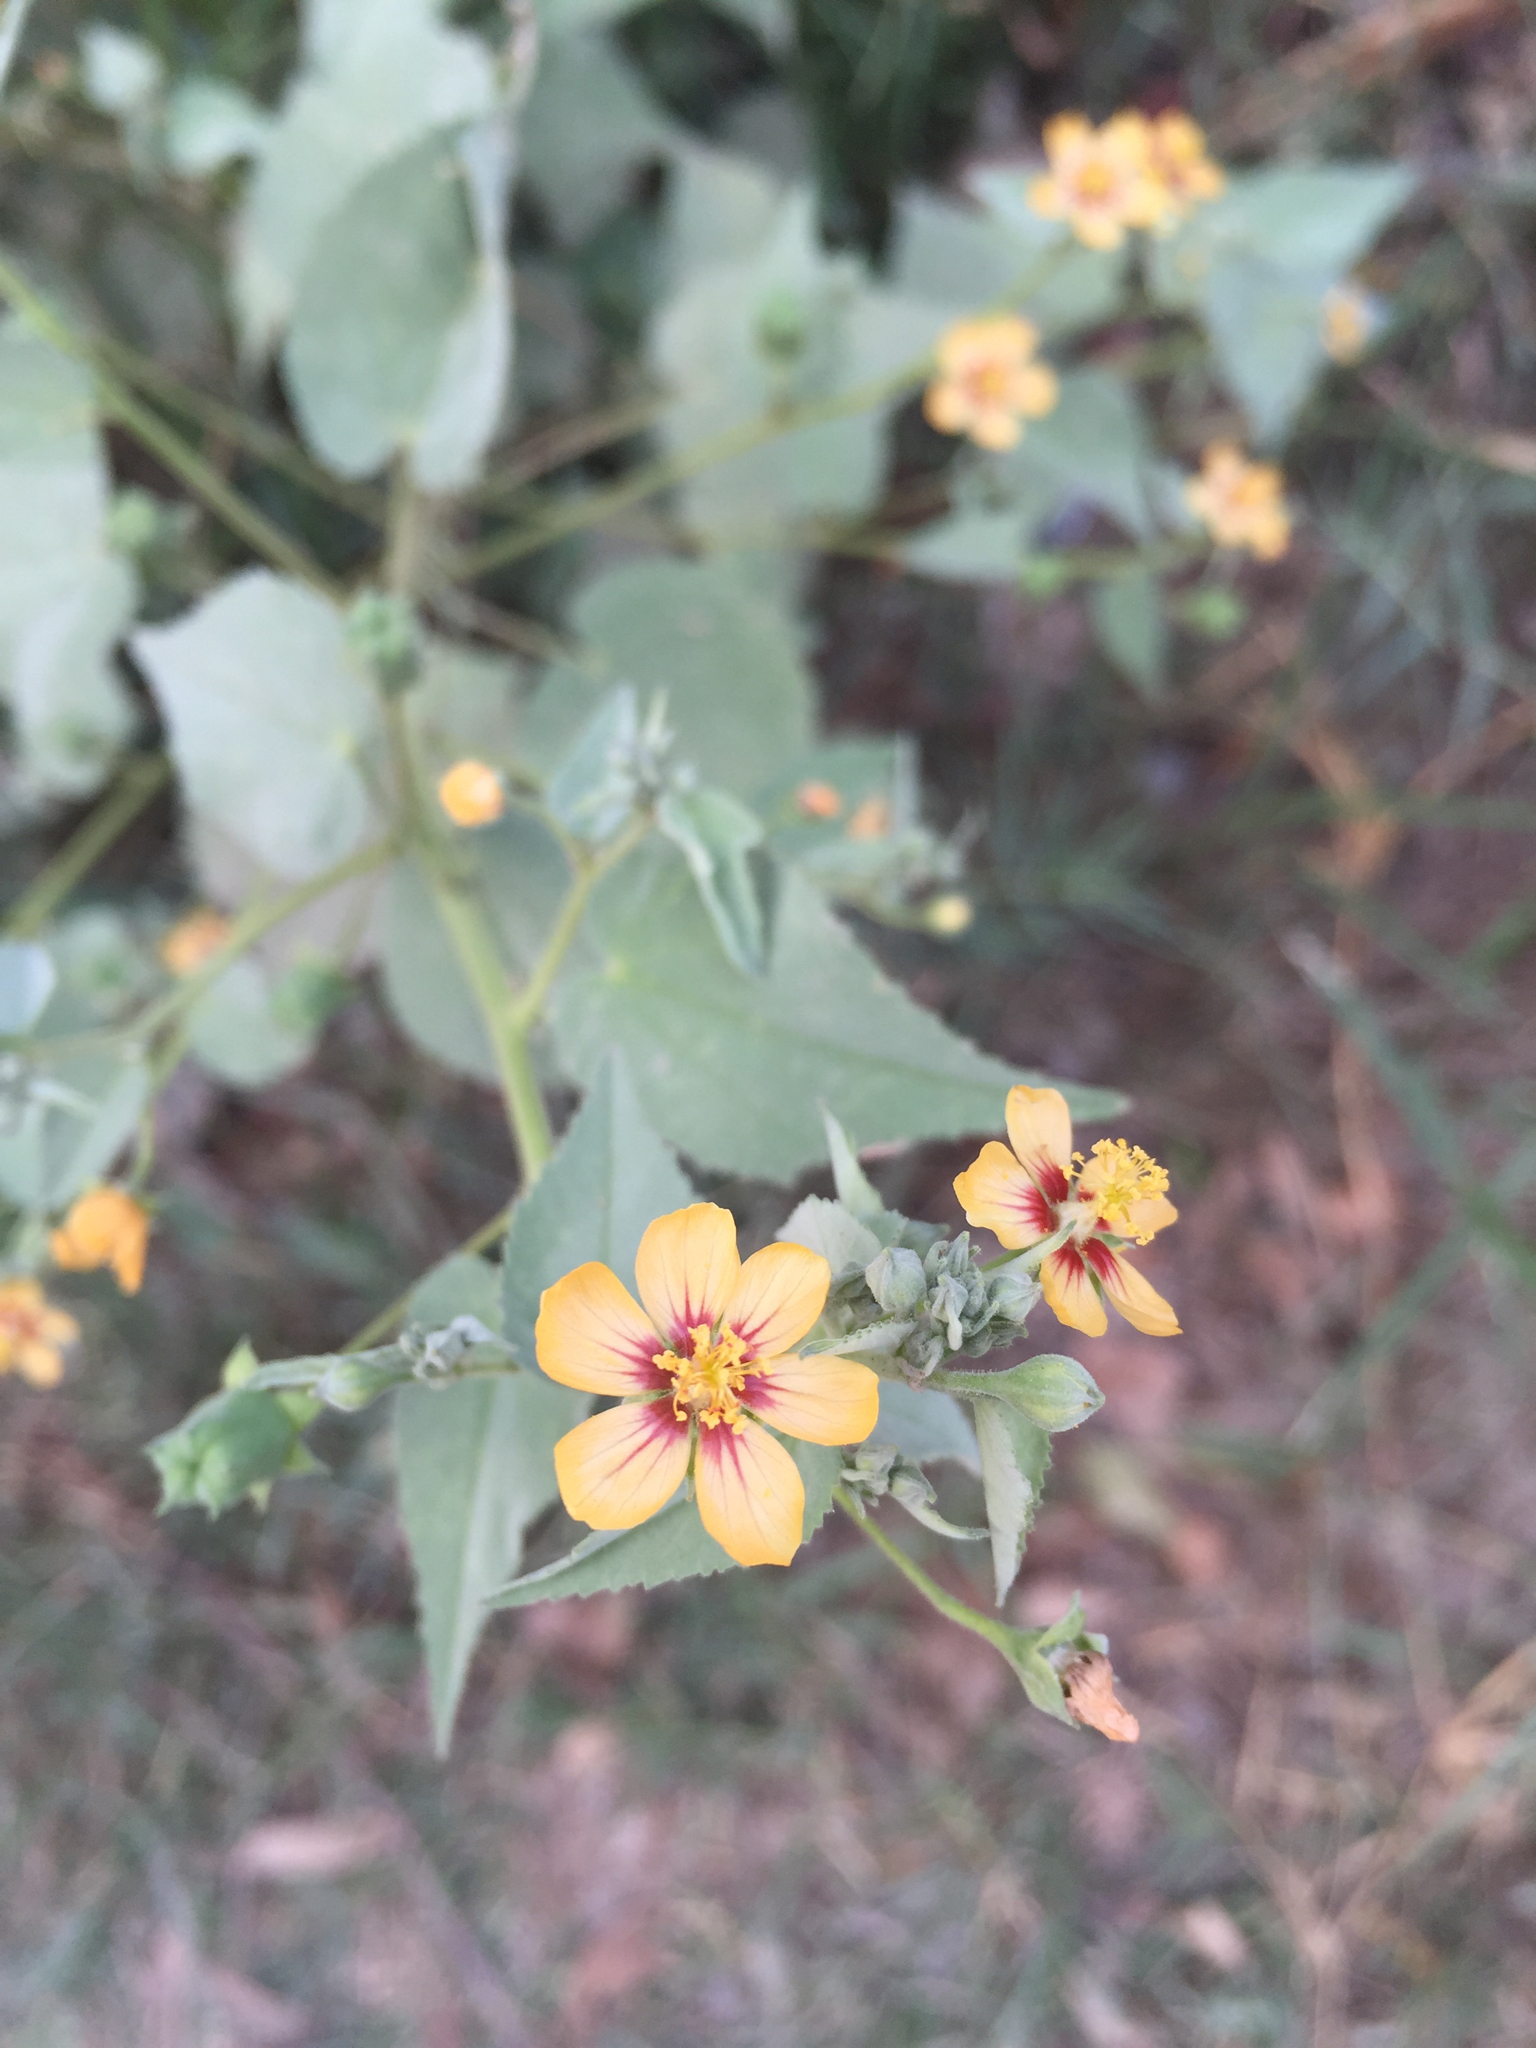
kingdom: Plantae
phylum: Tracheophyta
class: Magnoliopsida
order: Malvales
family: Malvaceae
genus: Abutilon
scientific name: Abutilon trisulcatum
